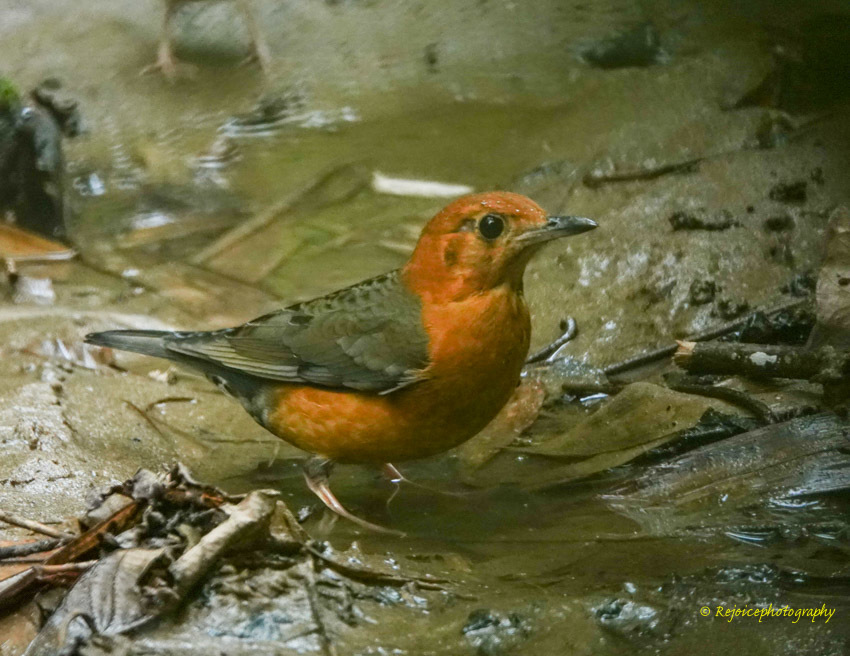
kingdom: Animalia
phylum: Chordata
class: Aves
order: Passeriformes
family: Turdidae
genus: Geokichla
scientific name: Geokichla citrina
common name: Orange-headed thrush
